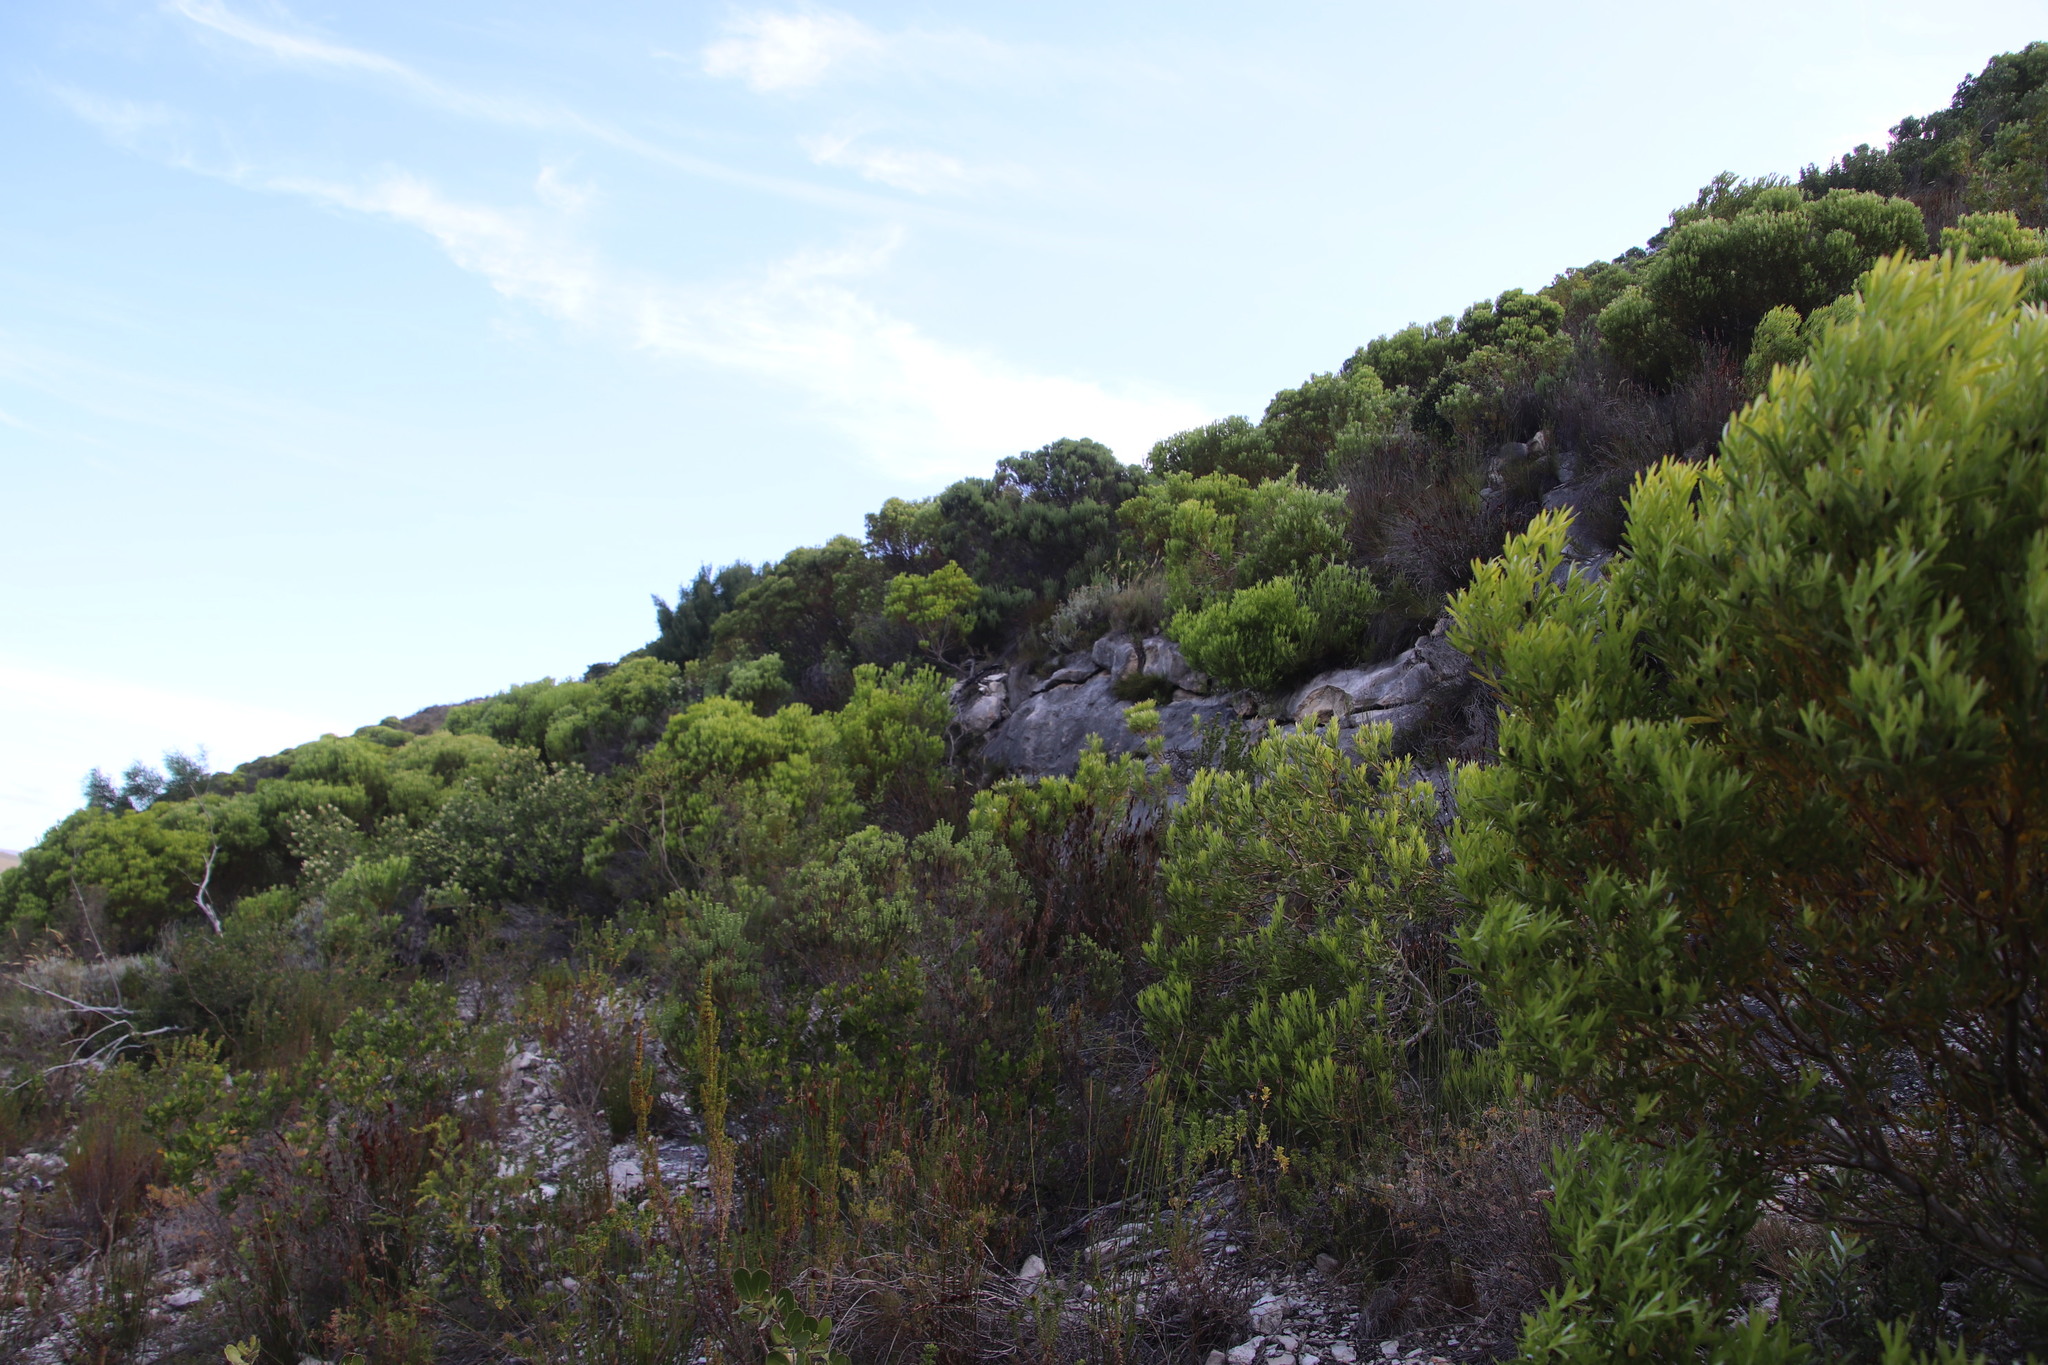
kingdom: Plantae
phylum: Tracheophyta
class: Magnoliopsida
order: Proteales
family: Proteaceae
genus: Leucadendron
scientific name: Leucadendron meridianum
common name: Limestone conebush
